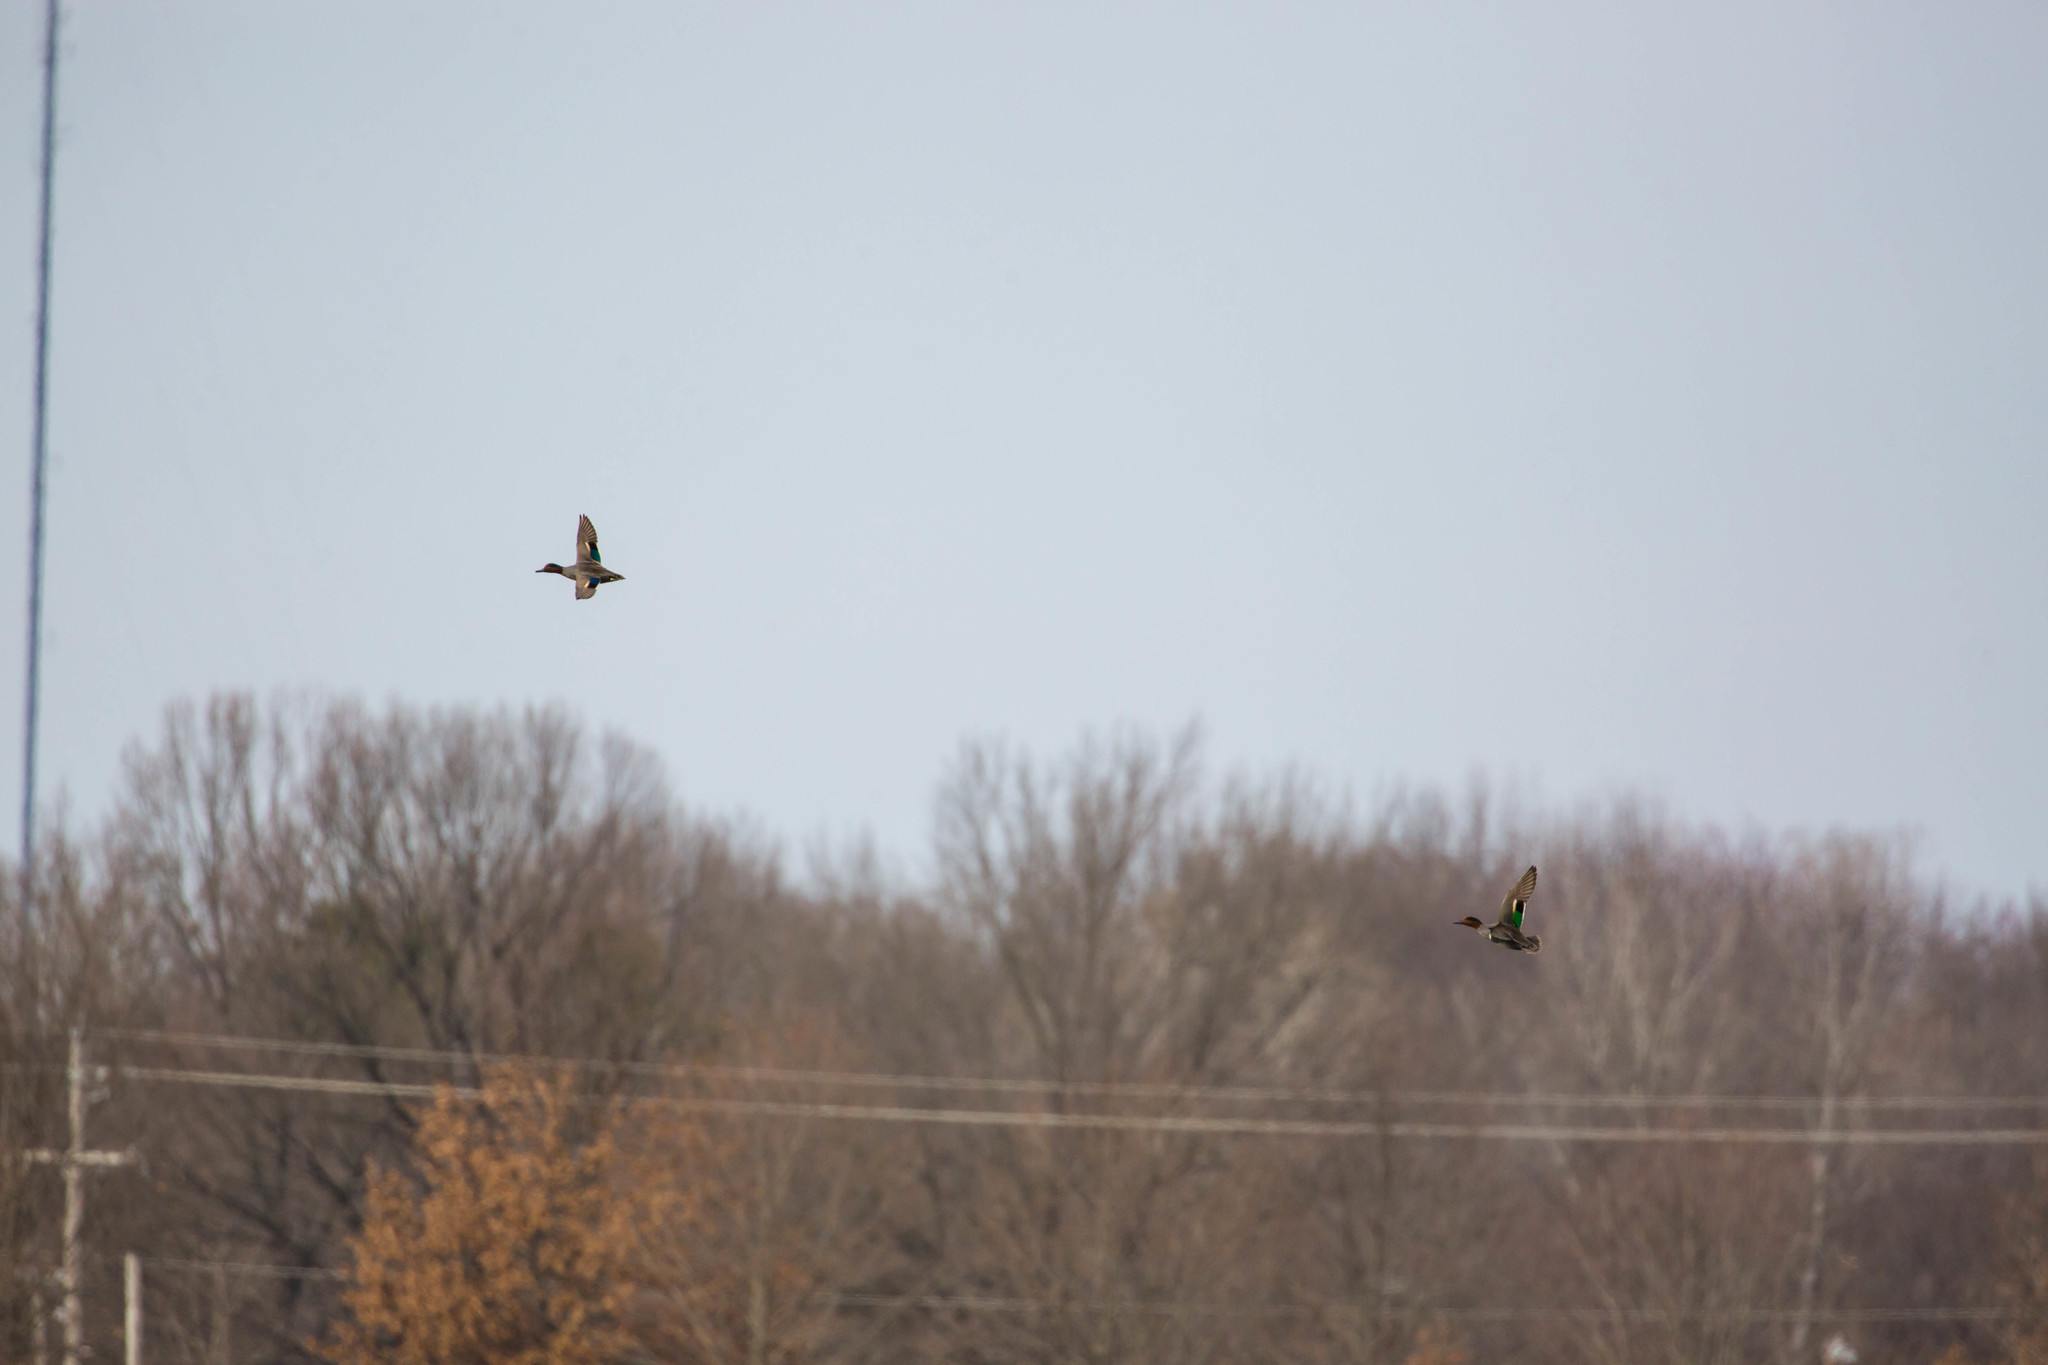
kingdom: Animalia
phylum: Chordata
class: Aves
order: Anseriformes
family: Anatidae
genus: Anas
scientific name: Anas crecca
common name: Eurasian teal
